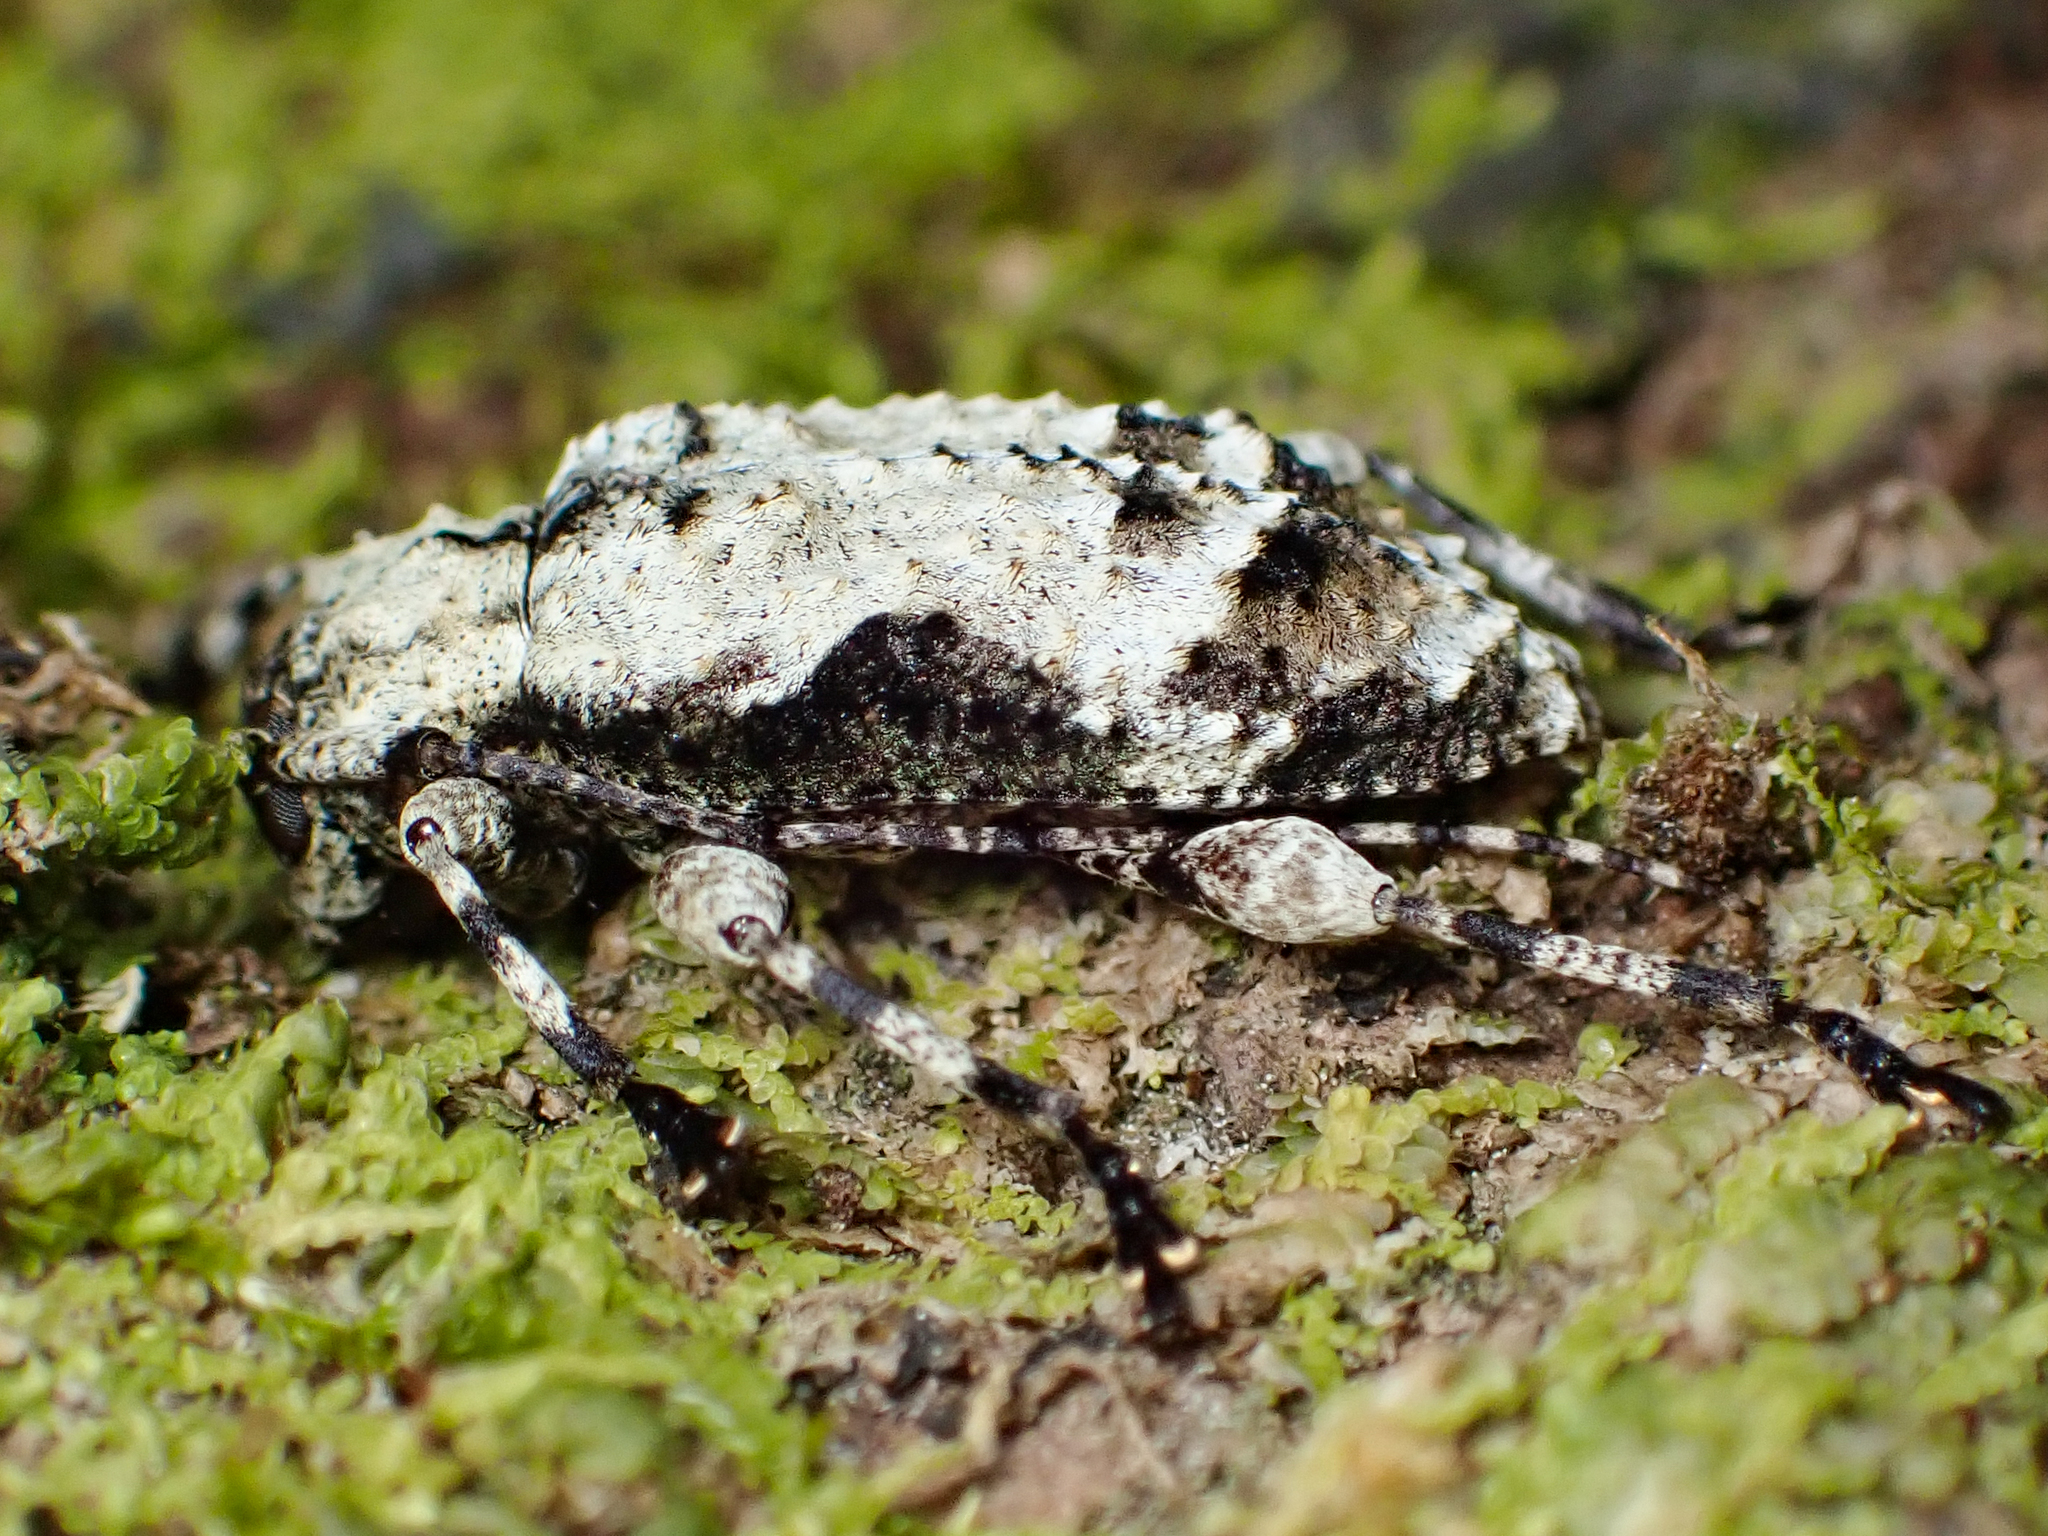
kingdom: Animalia
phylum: Arthropoda
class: Insecta
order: Coleoptera
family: Cerambycidae
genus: Leptostylus
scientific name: Leptostylus asperatus
